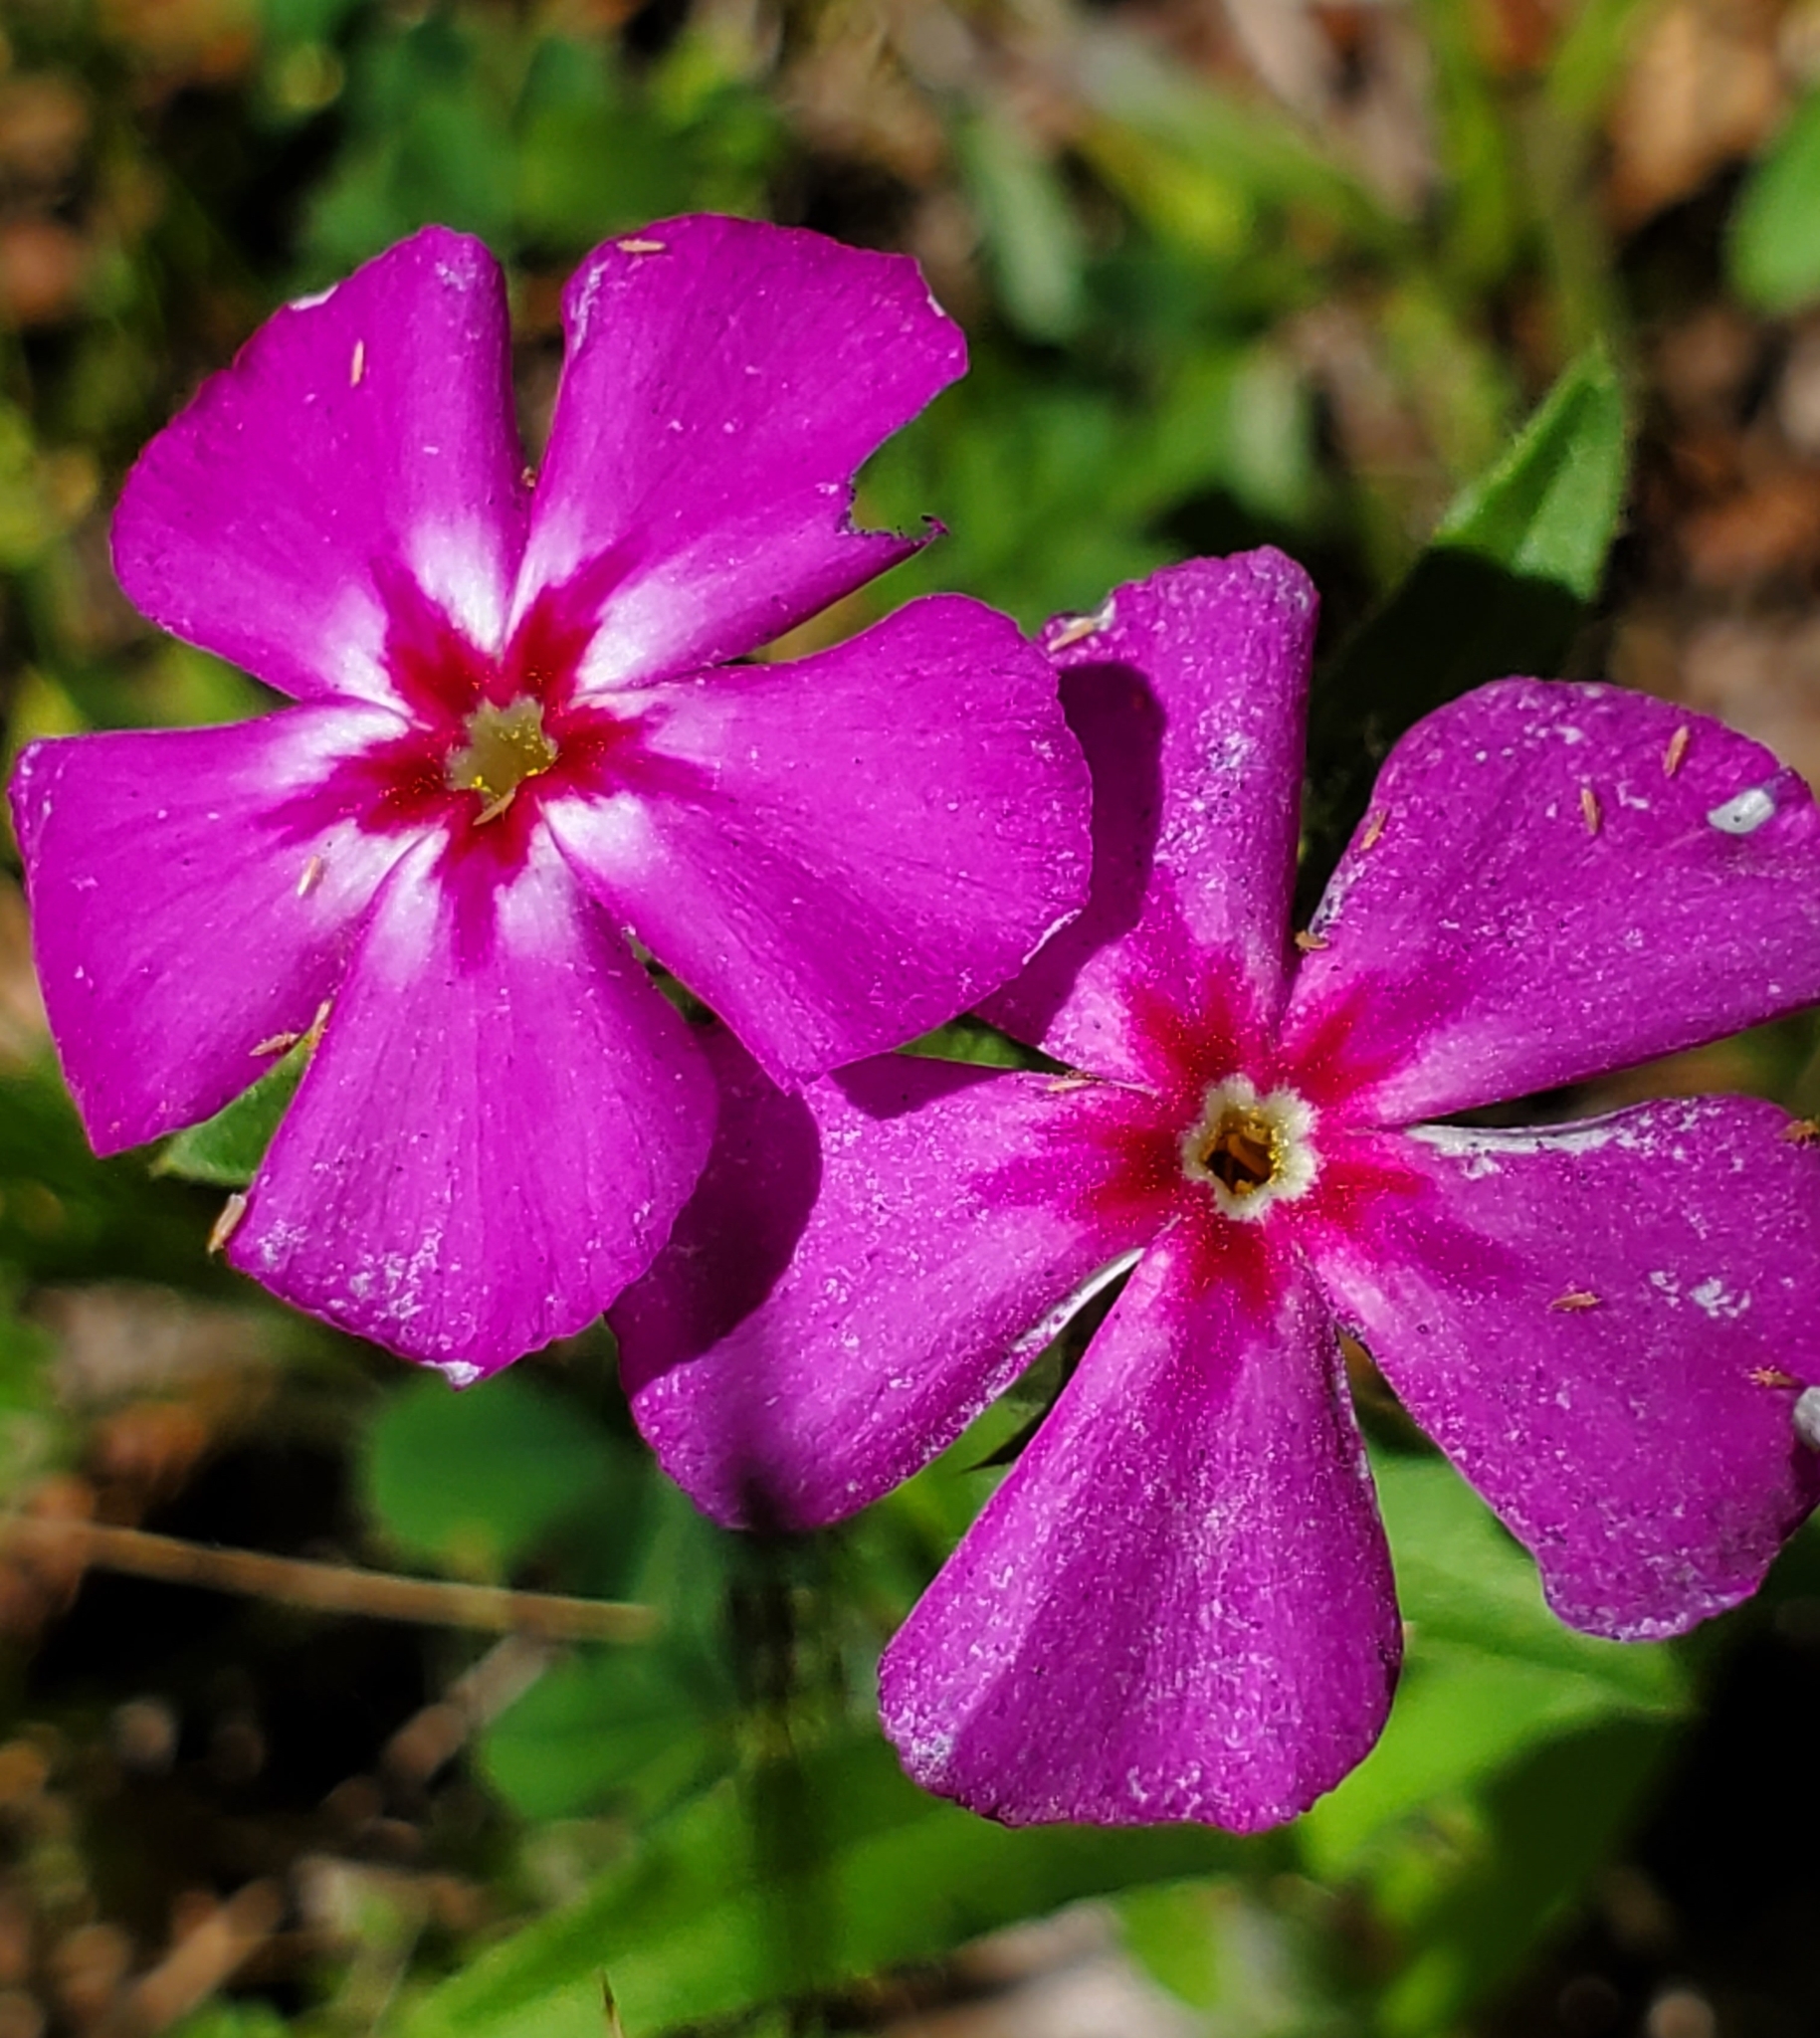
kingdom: Plantae
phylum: Tracheophyta
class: Magnoliopsida
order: Ericales
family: Polemoniaceae
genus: Phlox
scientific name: Phlox drummondii
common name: Drummond's phlox
